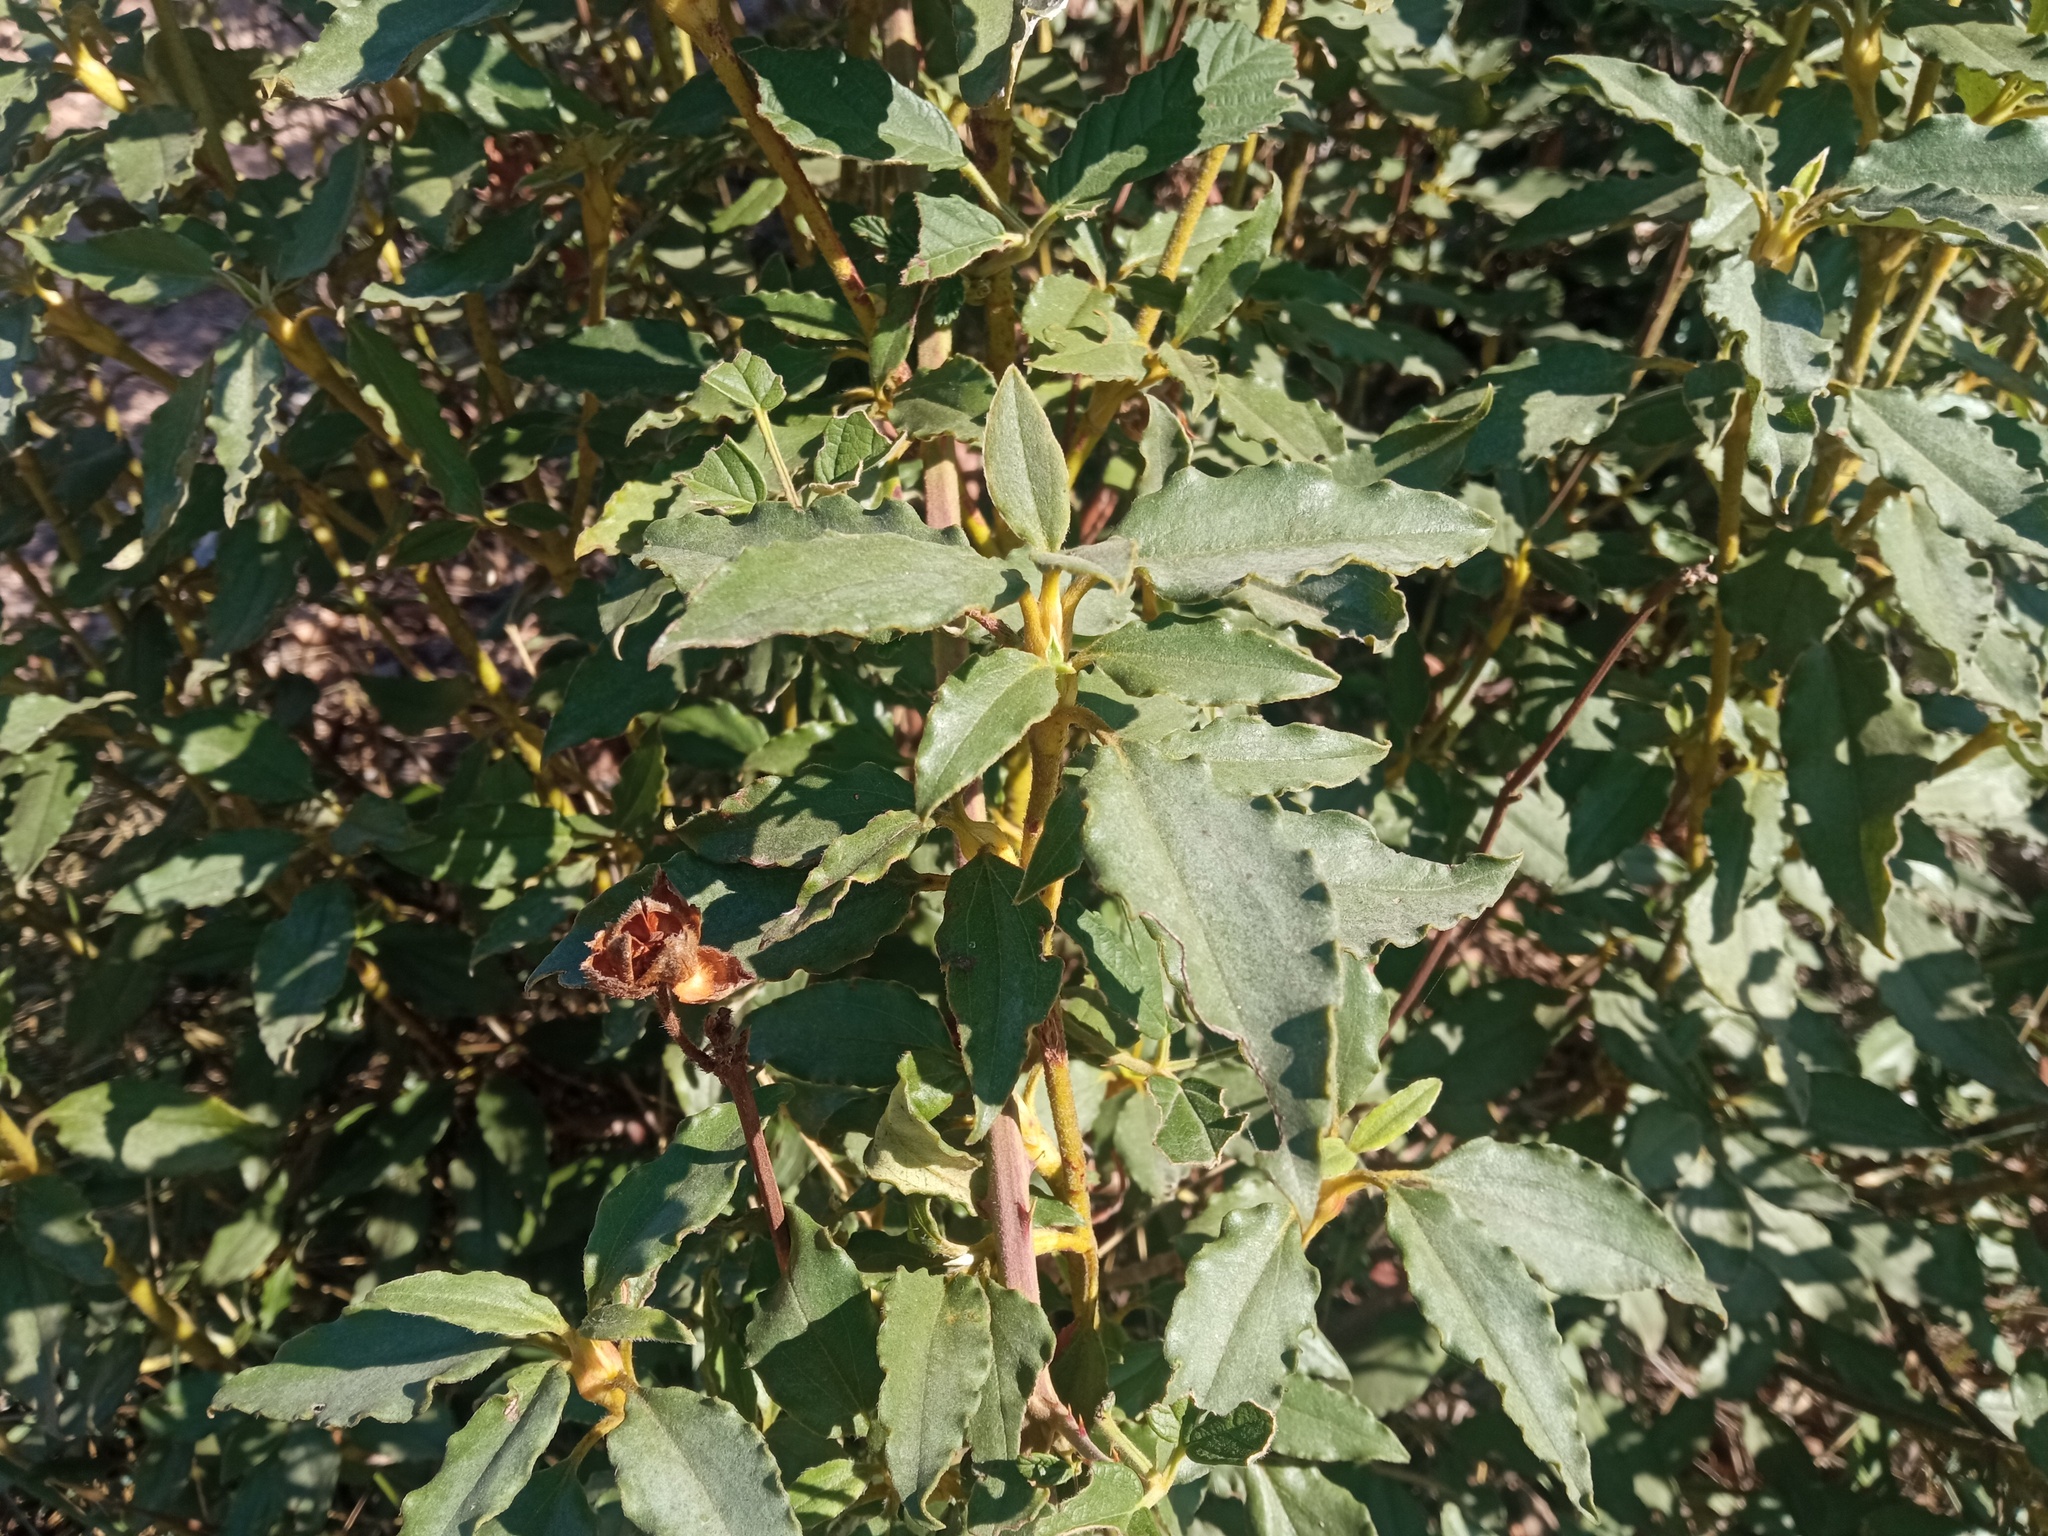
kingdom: Plantae
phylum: Tracheophyta
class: Magnoliopsida
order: Malvales
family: Cistaceae
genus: Cistus
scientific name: Cistus laurifolius
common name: Laurel-leaved cistus
